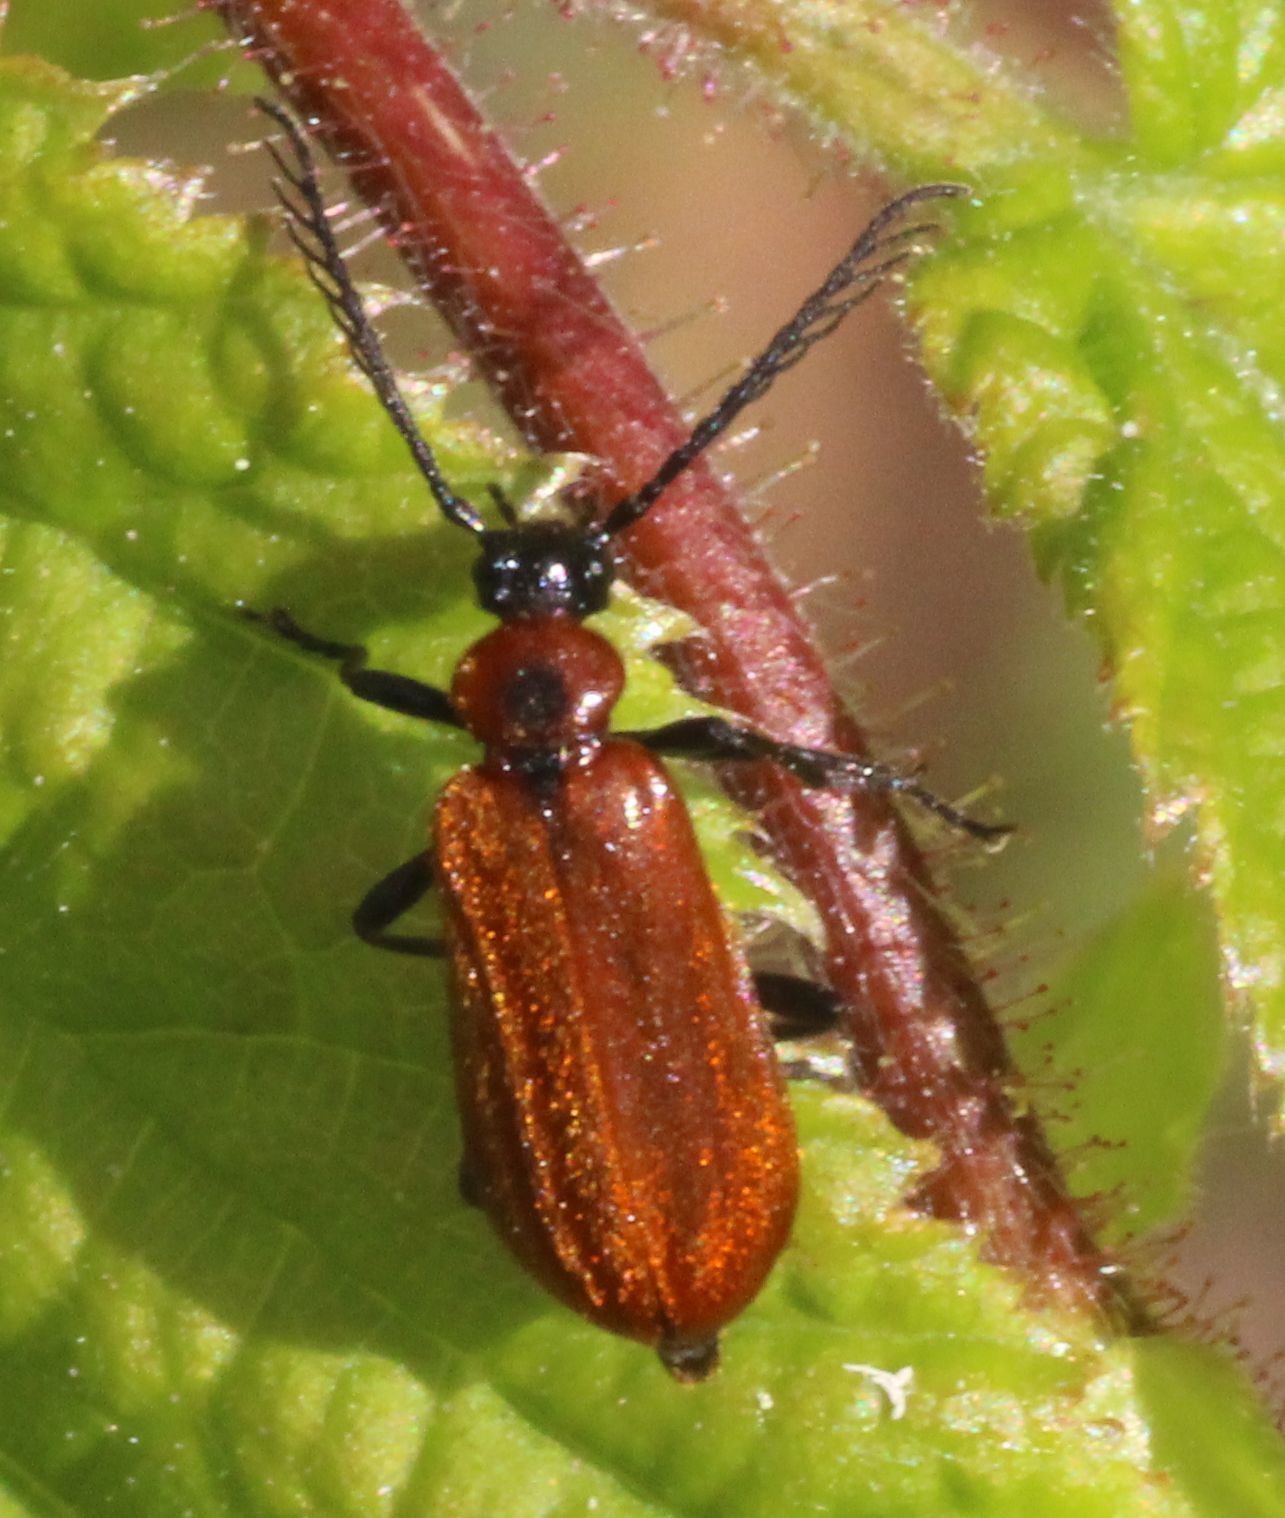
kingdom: Animalia
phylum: Arthropoda
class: Insecta
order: Coleoptera
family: Pyrochroidae
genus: Schizotus
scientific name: Schizotus pectinicornis
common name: Scarce cardinal beetle
